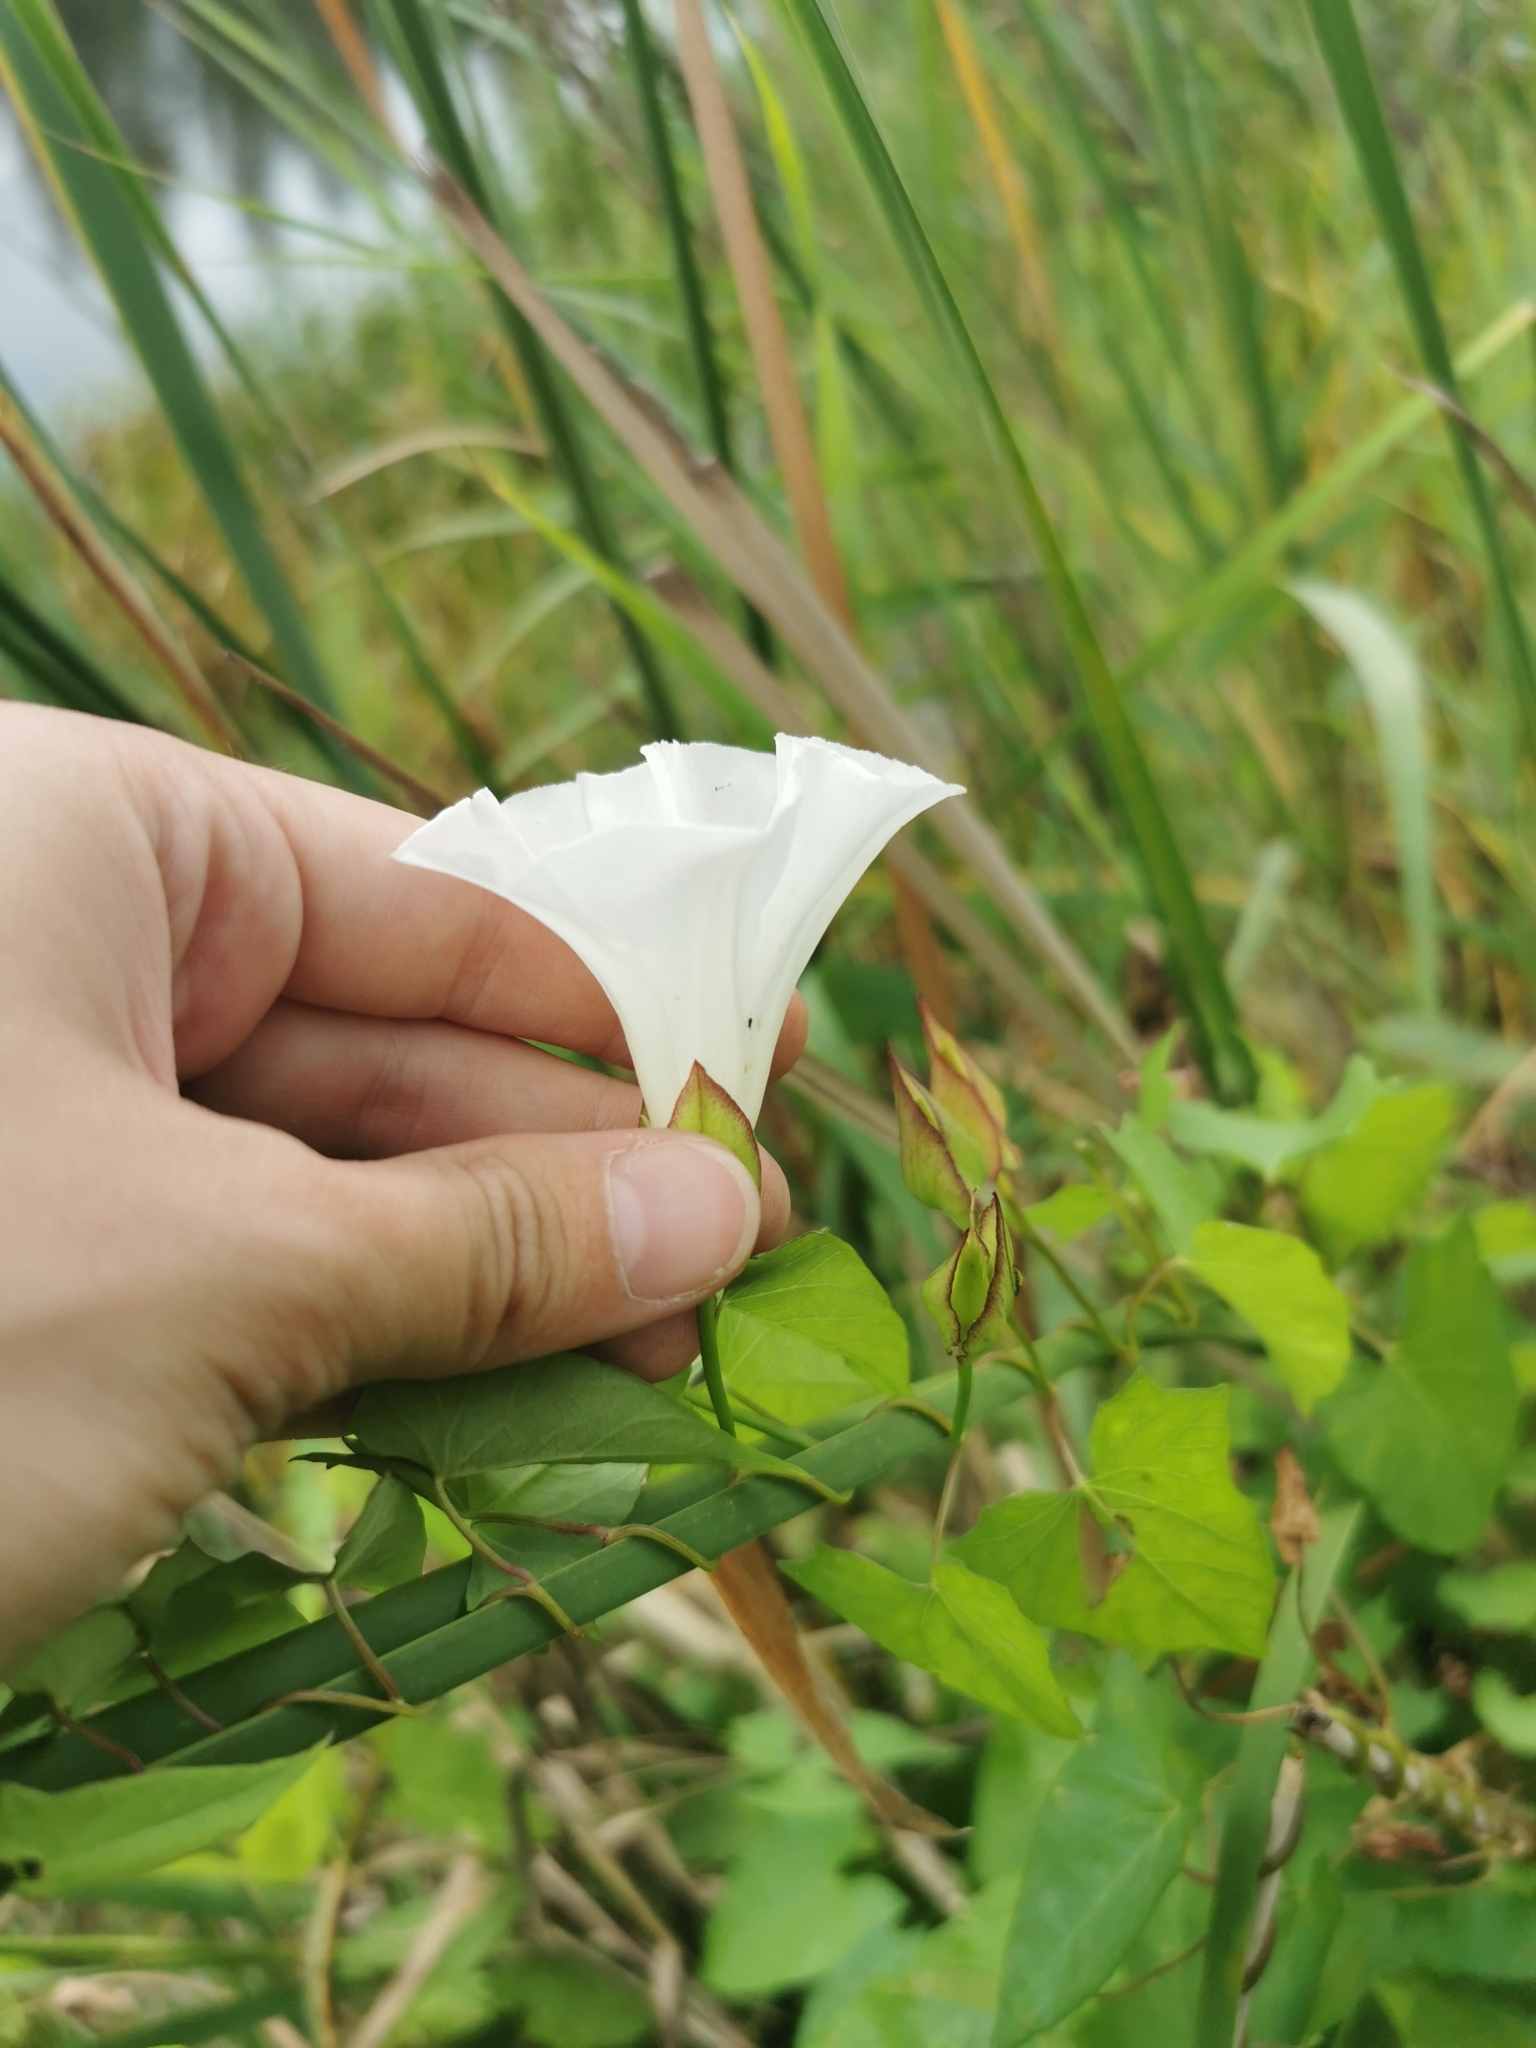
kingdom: Plantae
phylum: Tracheophyta
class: Magnoliopsida
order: Solanales
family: Convolvulaceae
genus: Calystegia
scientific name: Calystegia sepium
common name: Hedge bindweed
